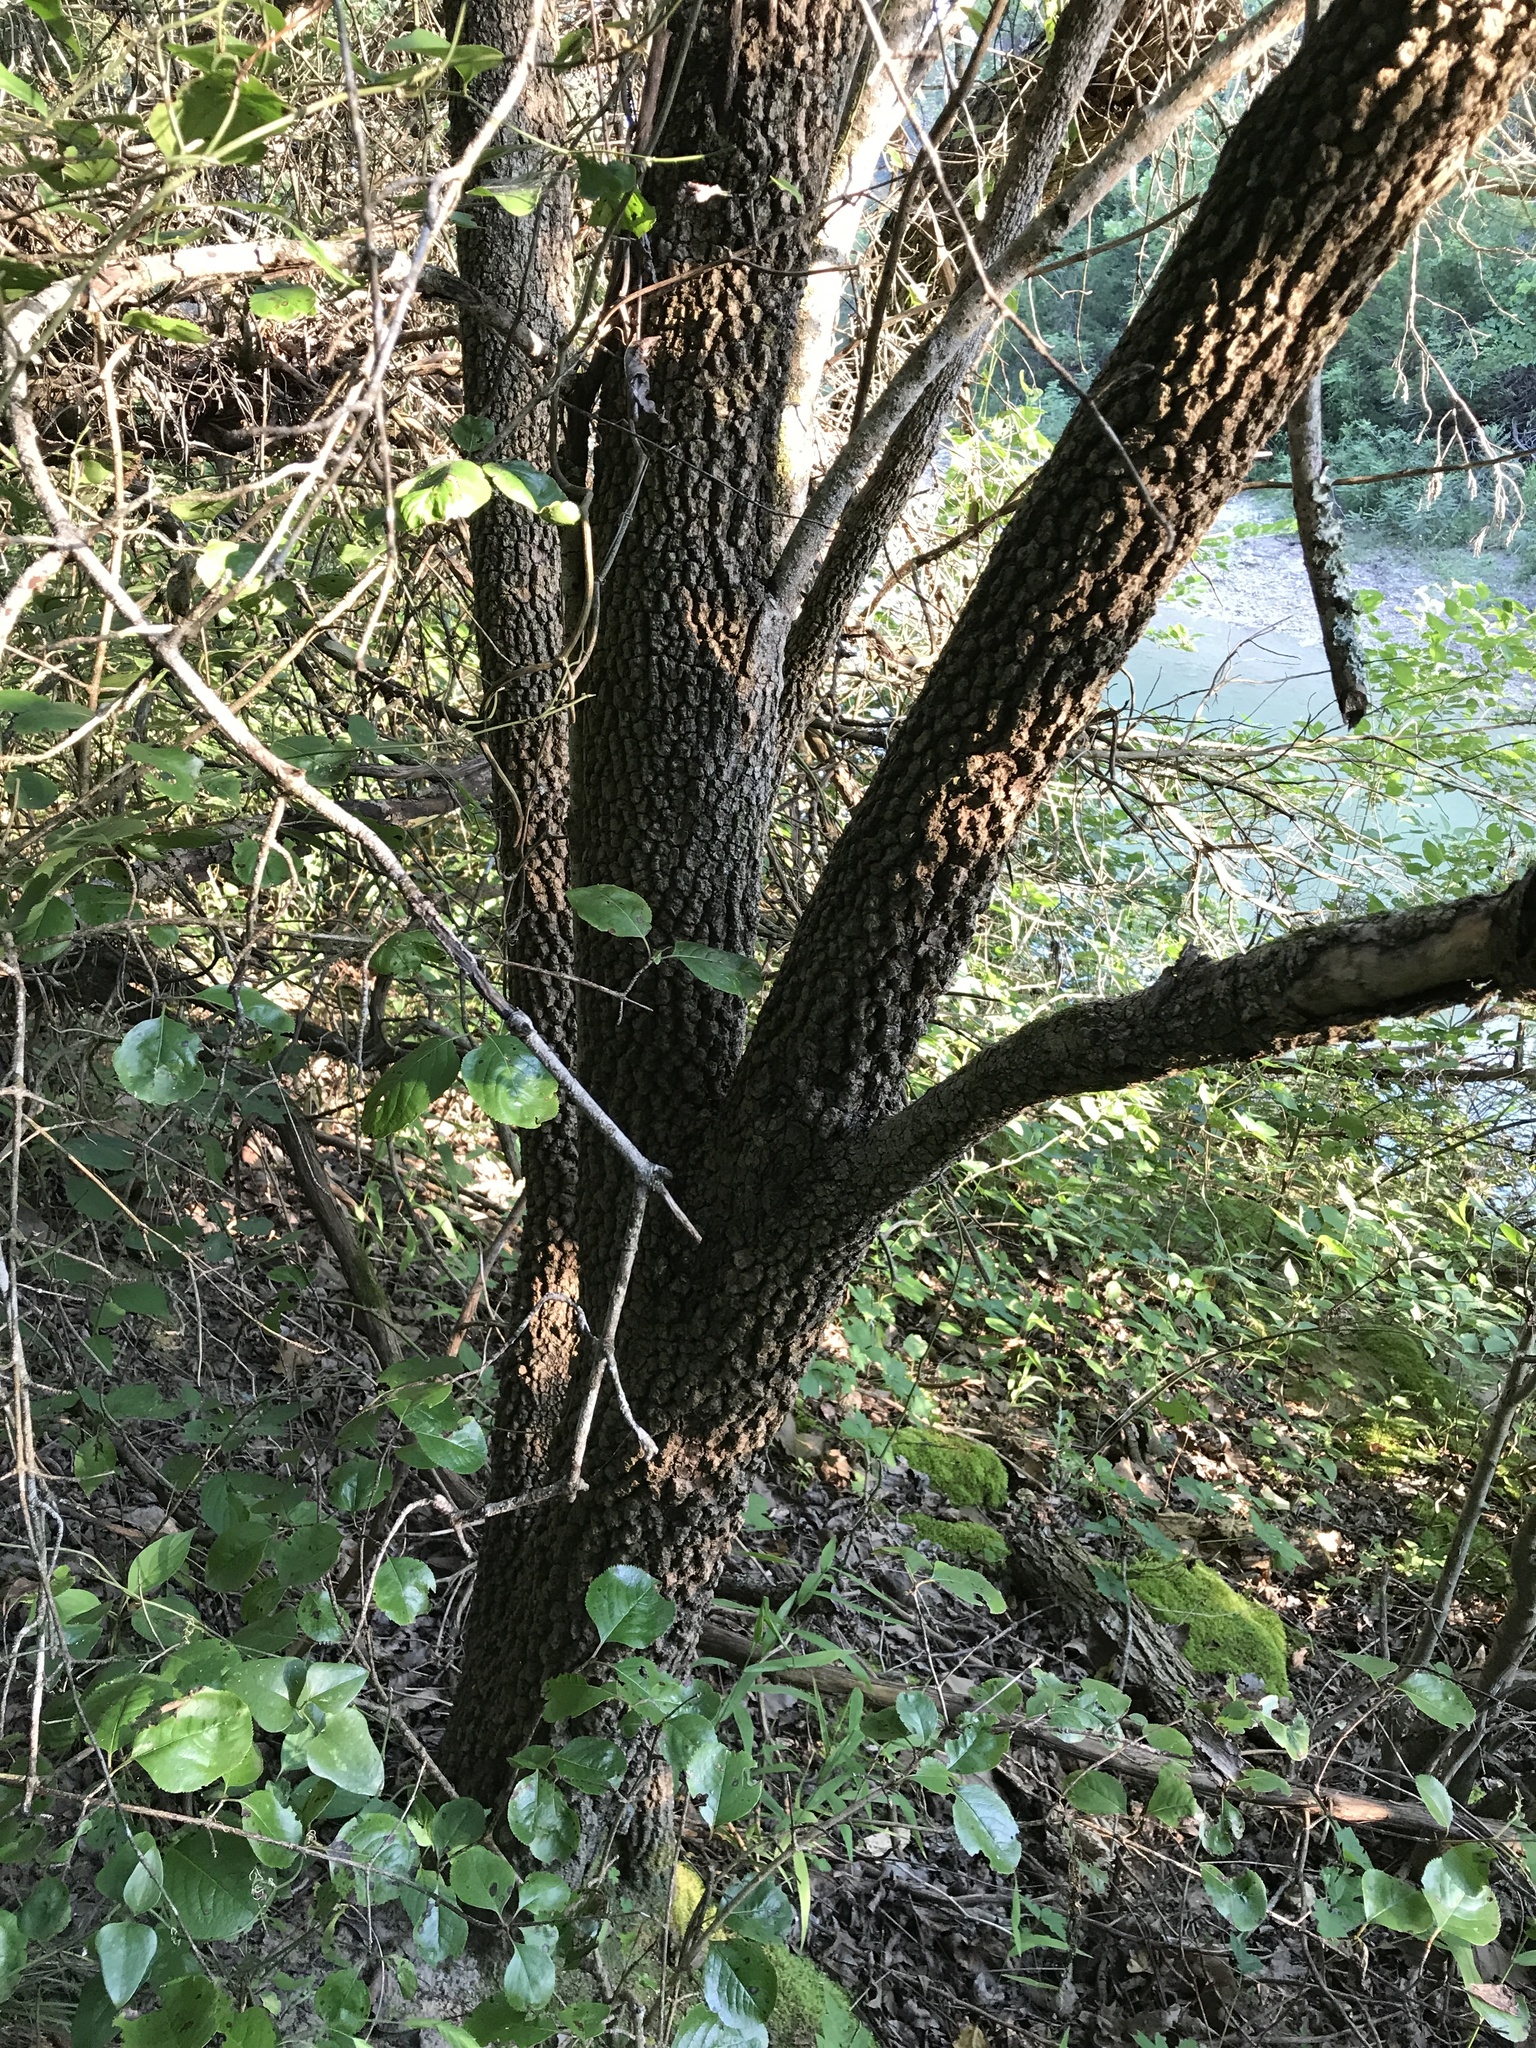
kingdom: Plantae
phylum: Tracheophyta
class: Magnoliopsida
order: Dipsacales
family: Viburnaceae
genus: Viburnum
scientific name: Viburnum rufidulum
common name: Blue haw
